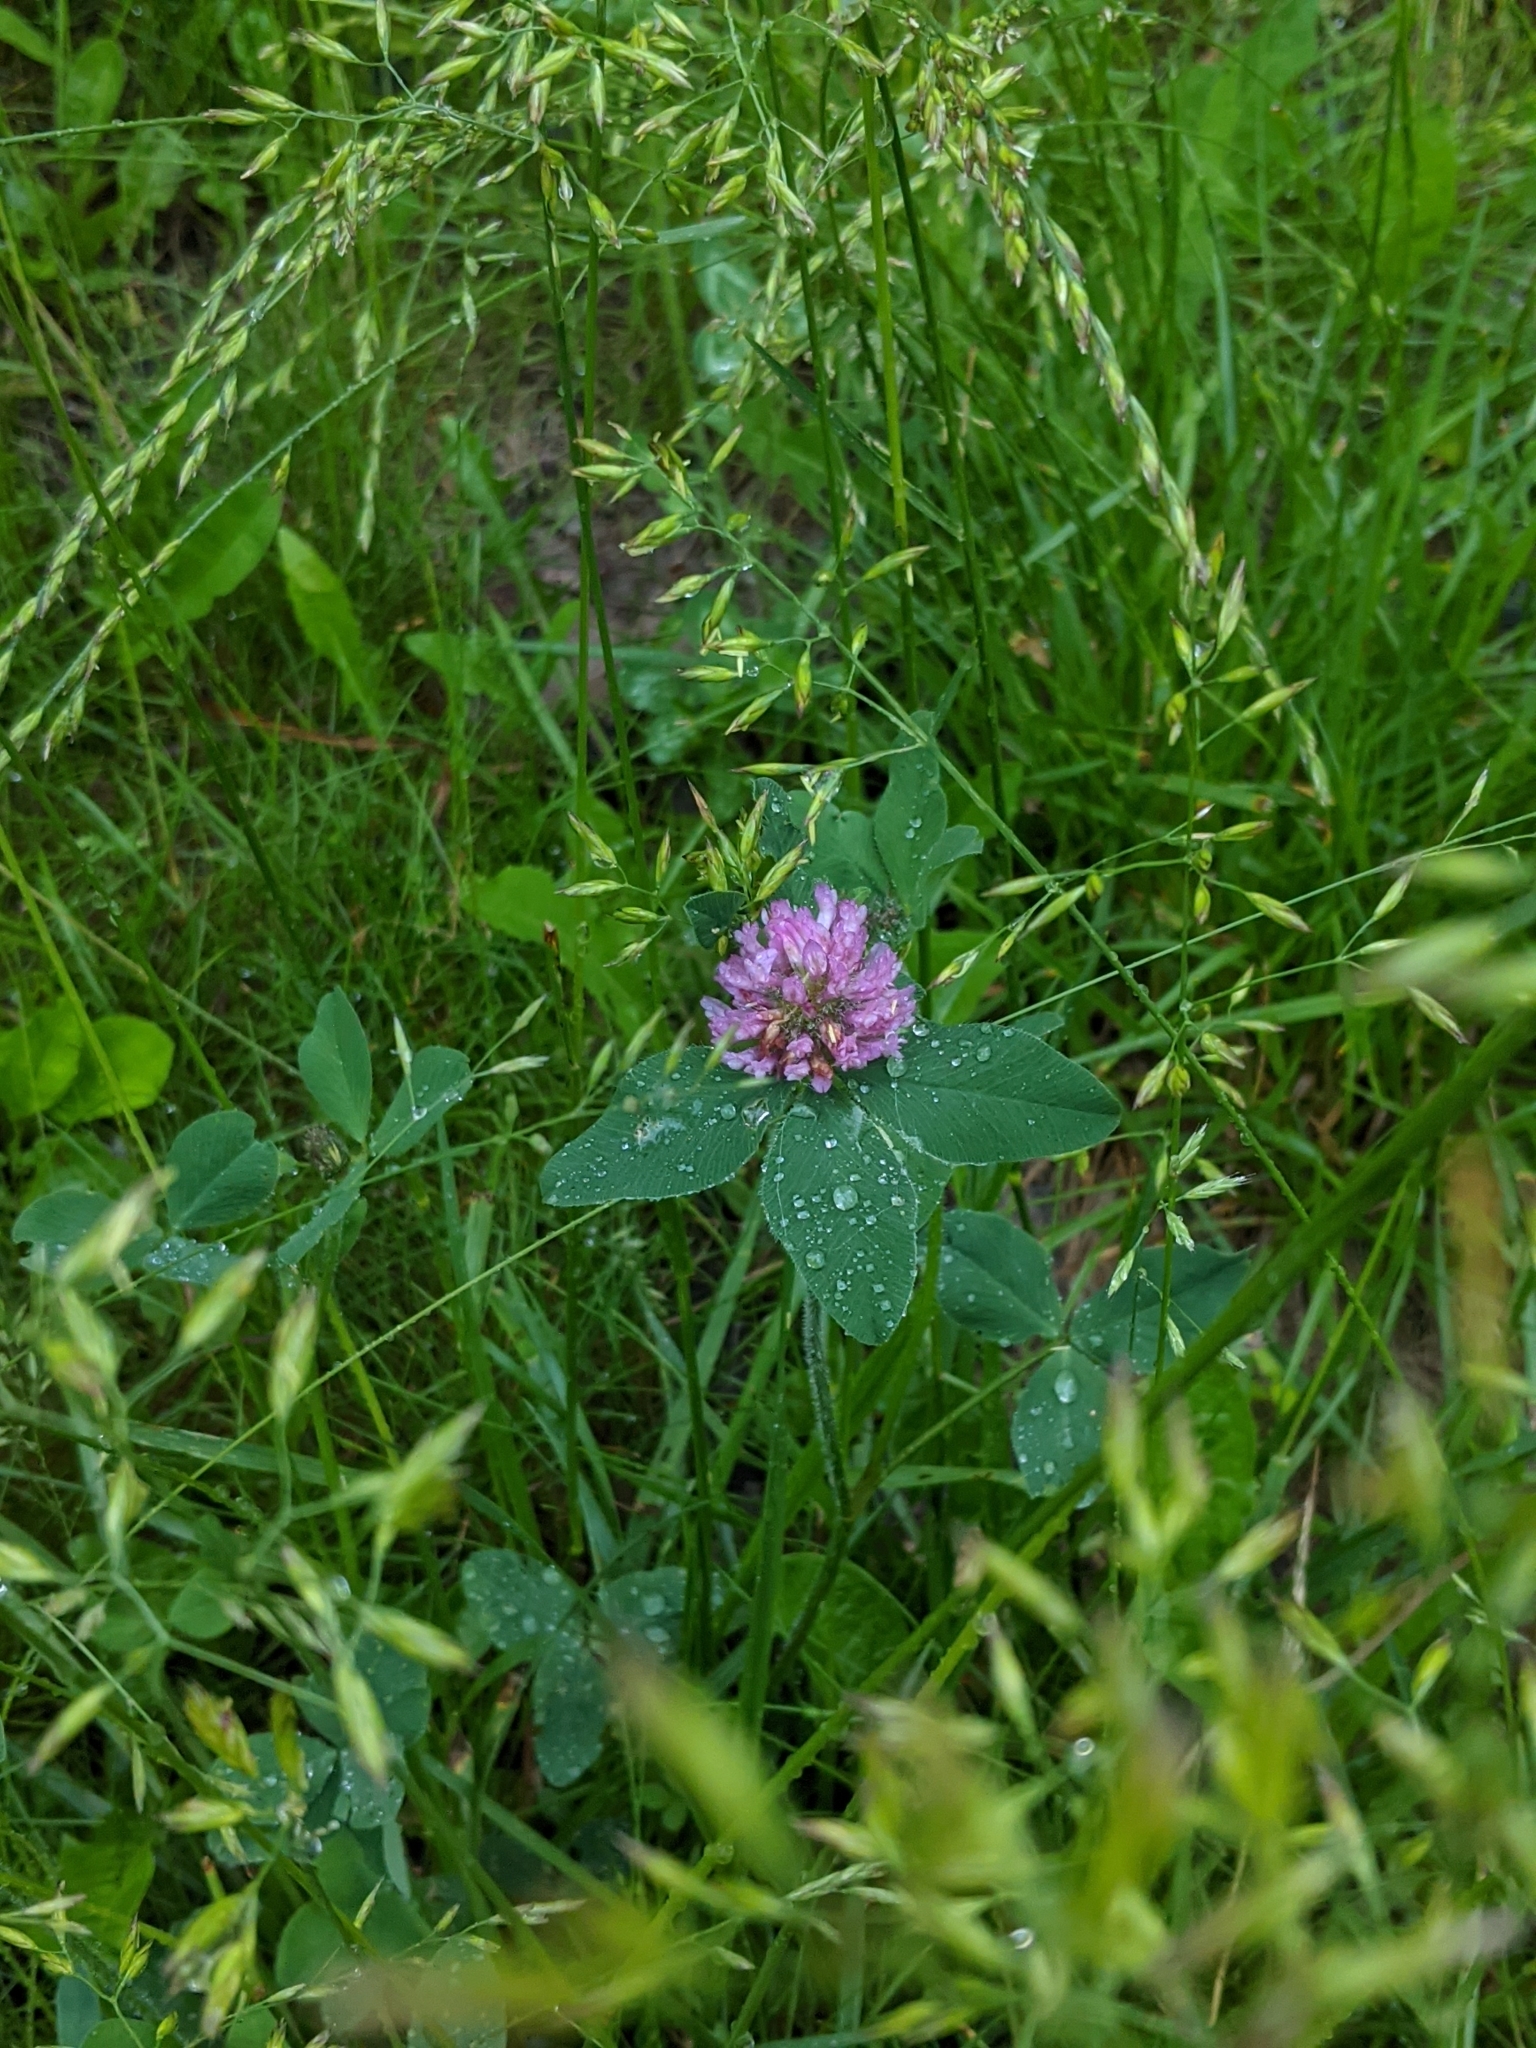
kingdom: Plantae
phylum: Tracheophyta
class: Magnoliopsida
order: Fabales
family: Fabaceae
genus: Trifolium
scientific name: Trifolium pratense
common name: Red clover
